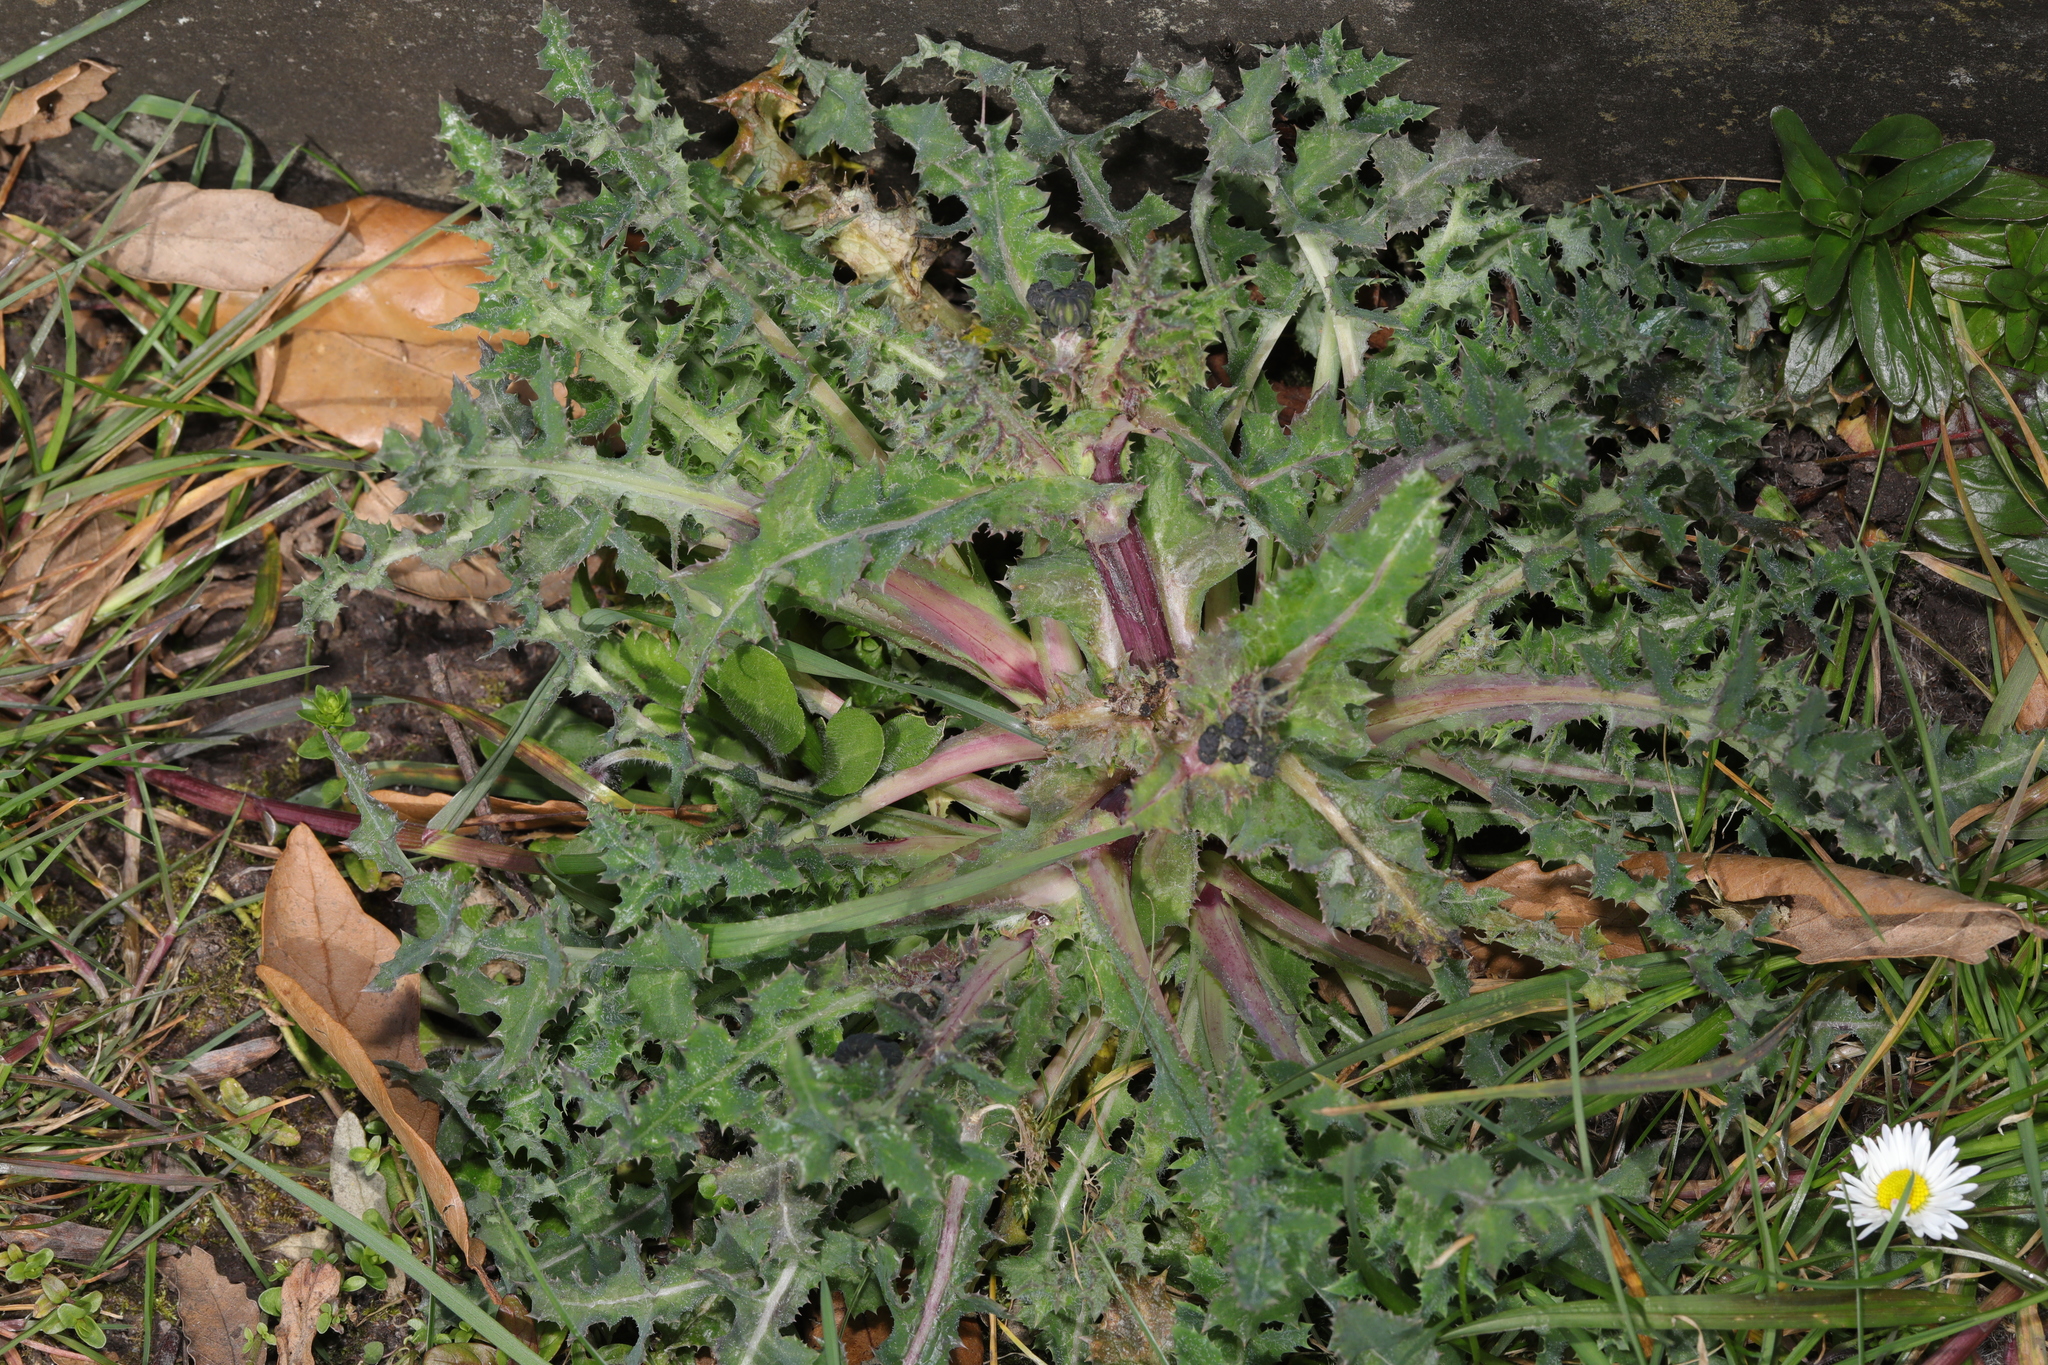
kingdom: Plantae
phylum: Tracheophyta
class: Magnoliopsida
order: Asterales
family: Asteraceae
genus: Sonchus
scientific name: Sonchus asper
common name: Prickly sow-thistle
